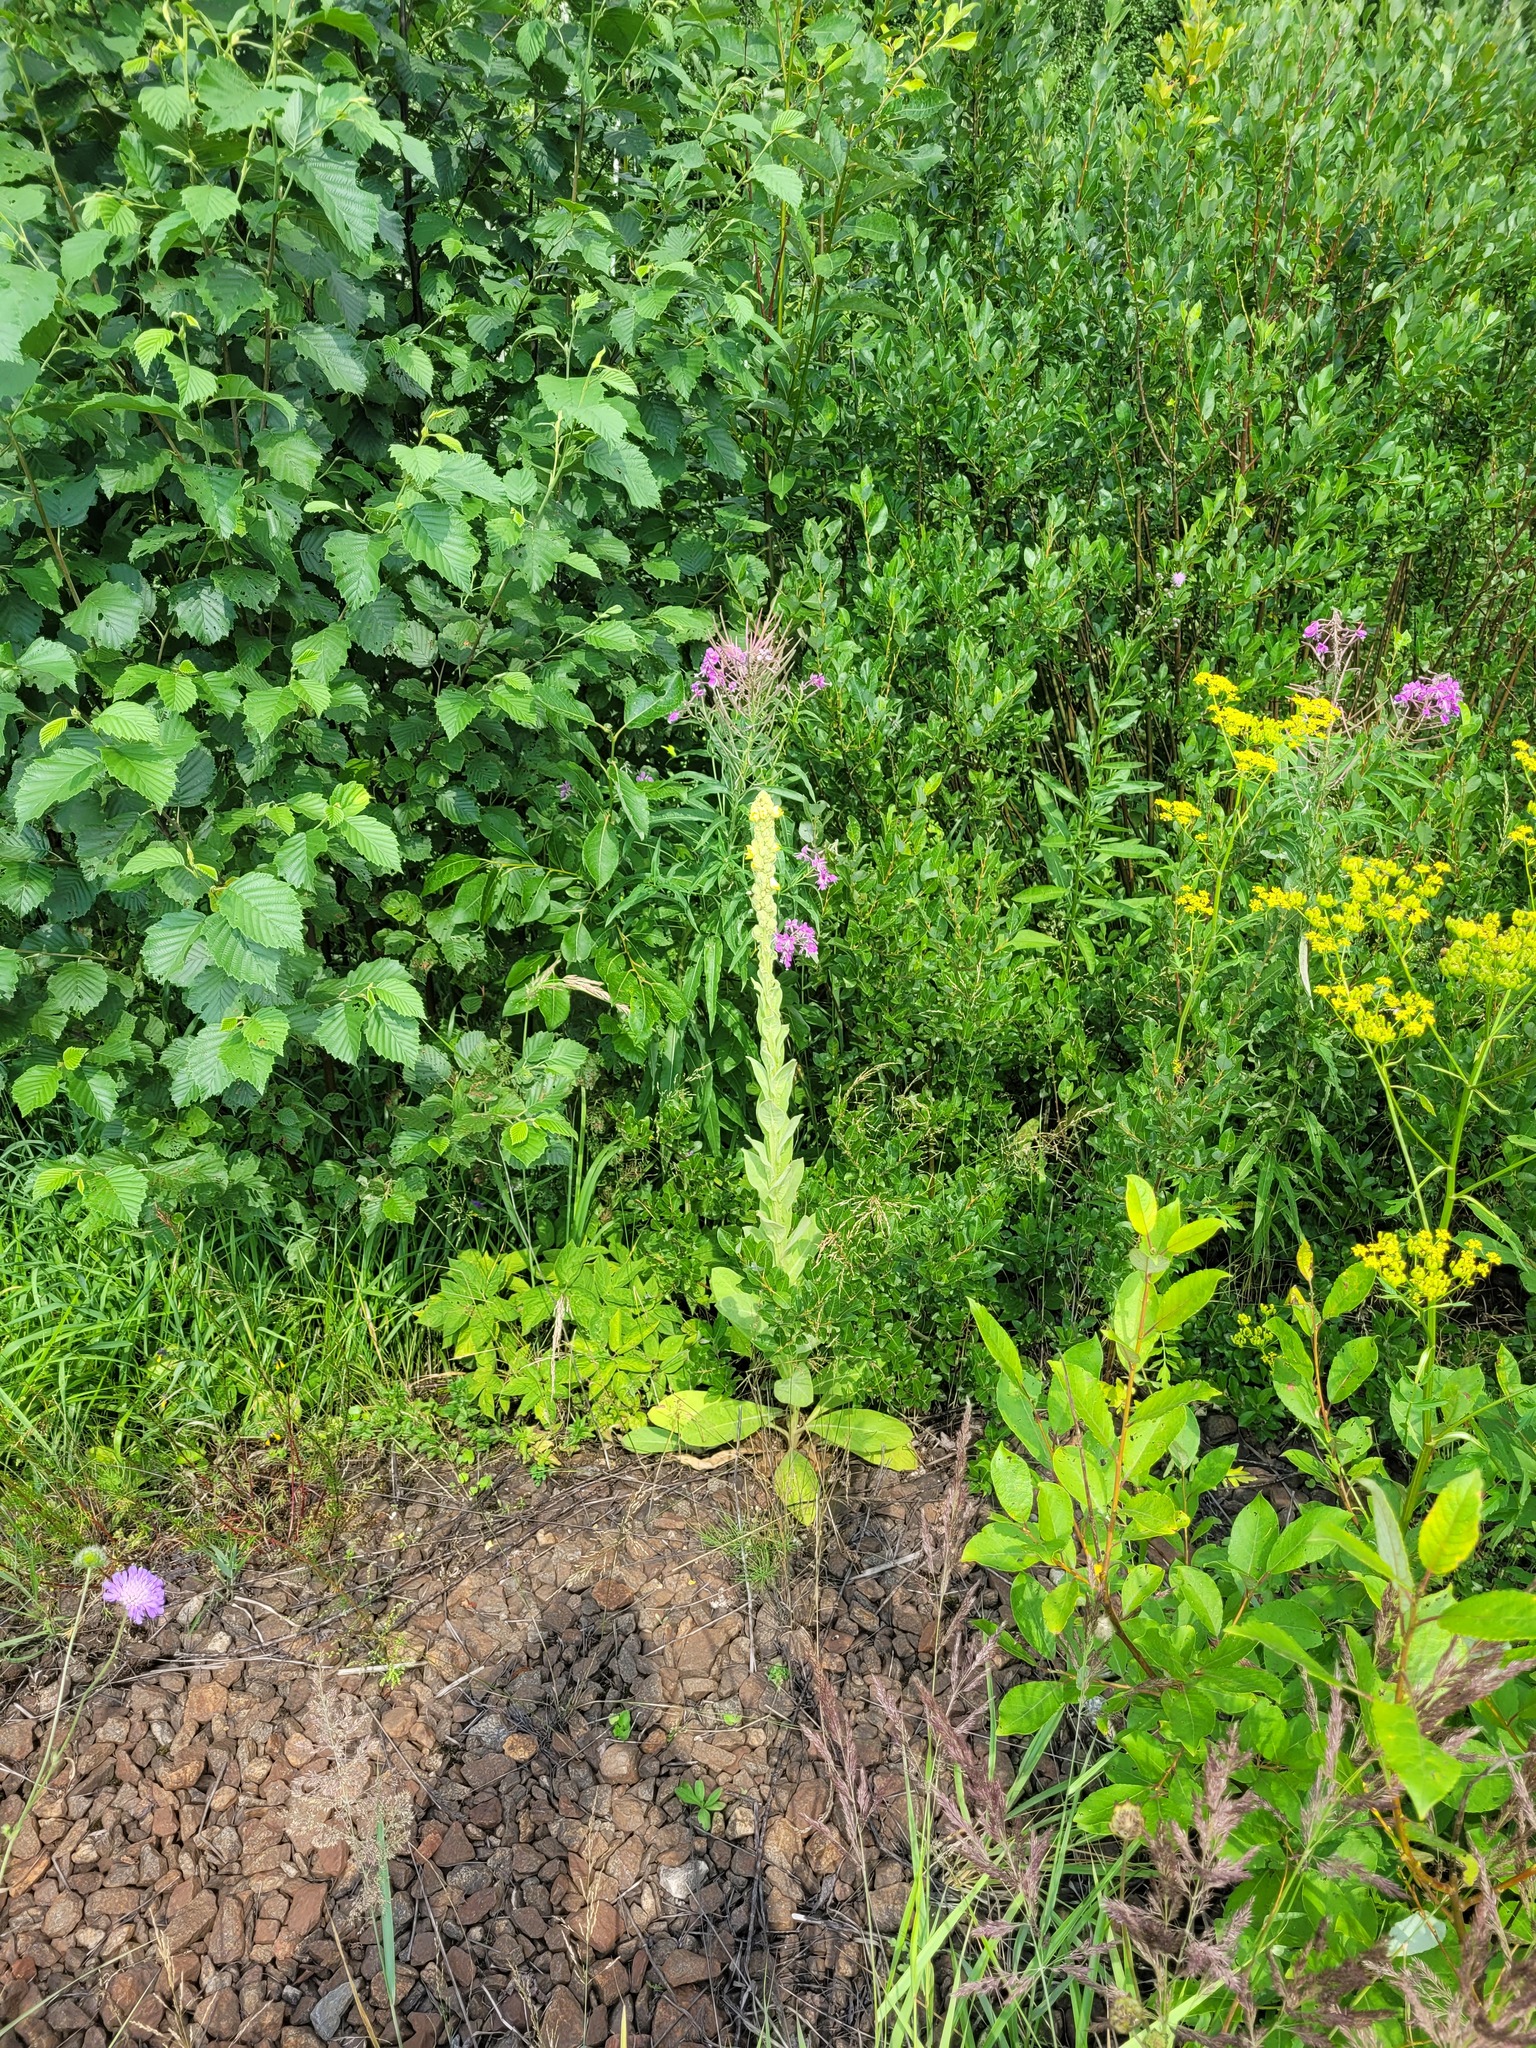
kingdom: Plantae
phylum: Tracheophyta
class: Magnoliopsida
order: Lamiales
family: Scrophulariaceae
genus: Verbascum
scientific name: Verbascum thapsus
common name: Common mullein
